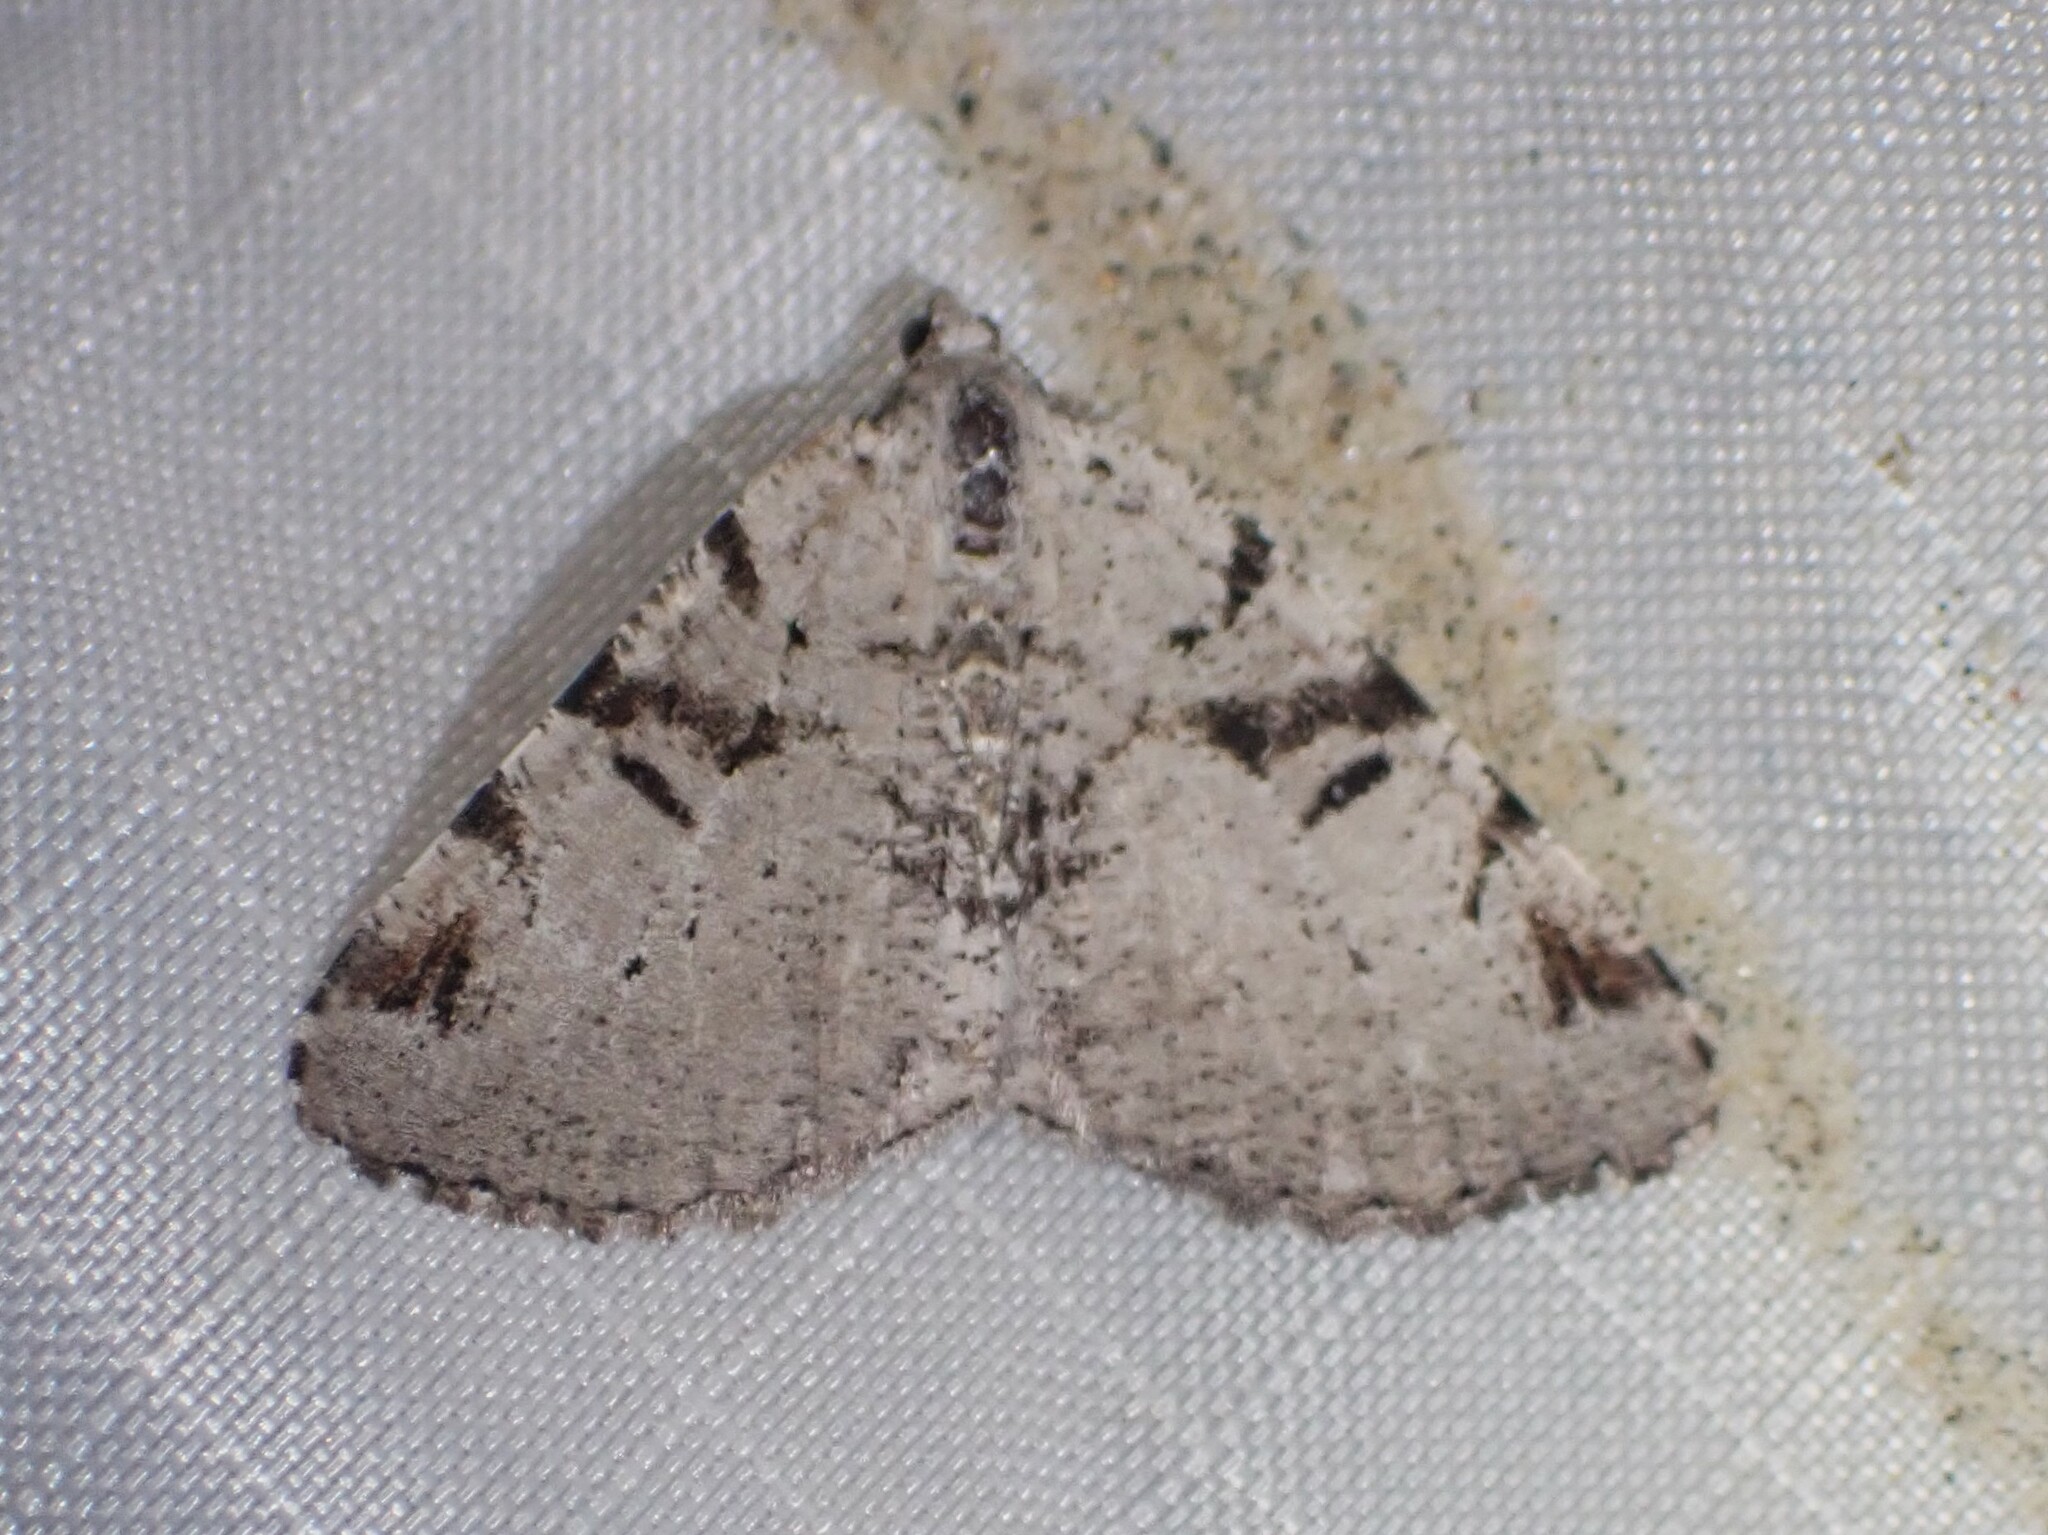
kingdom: Animalia
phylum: Arthropoda
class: Insecta
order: Lepidoptera
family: Geometridae
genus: Macaria
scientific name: Macaria bitactata
